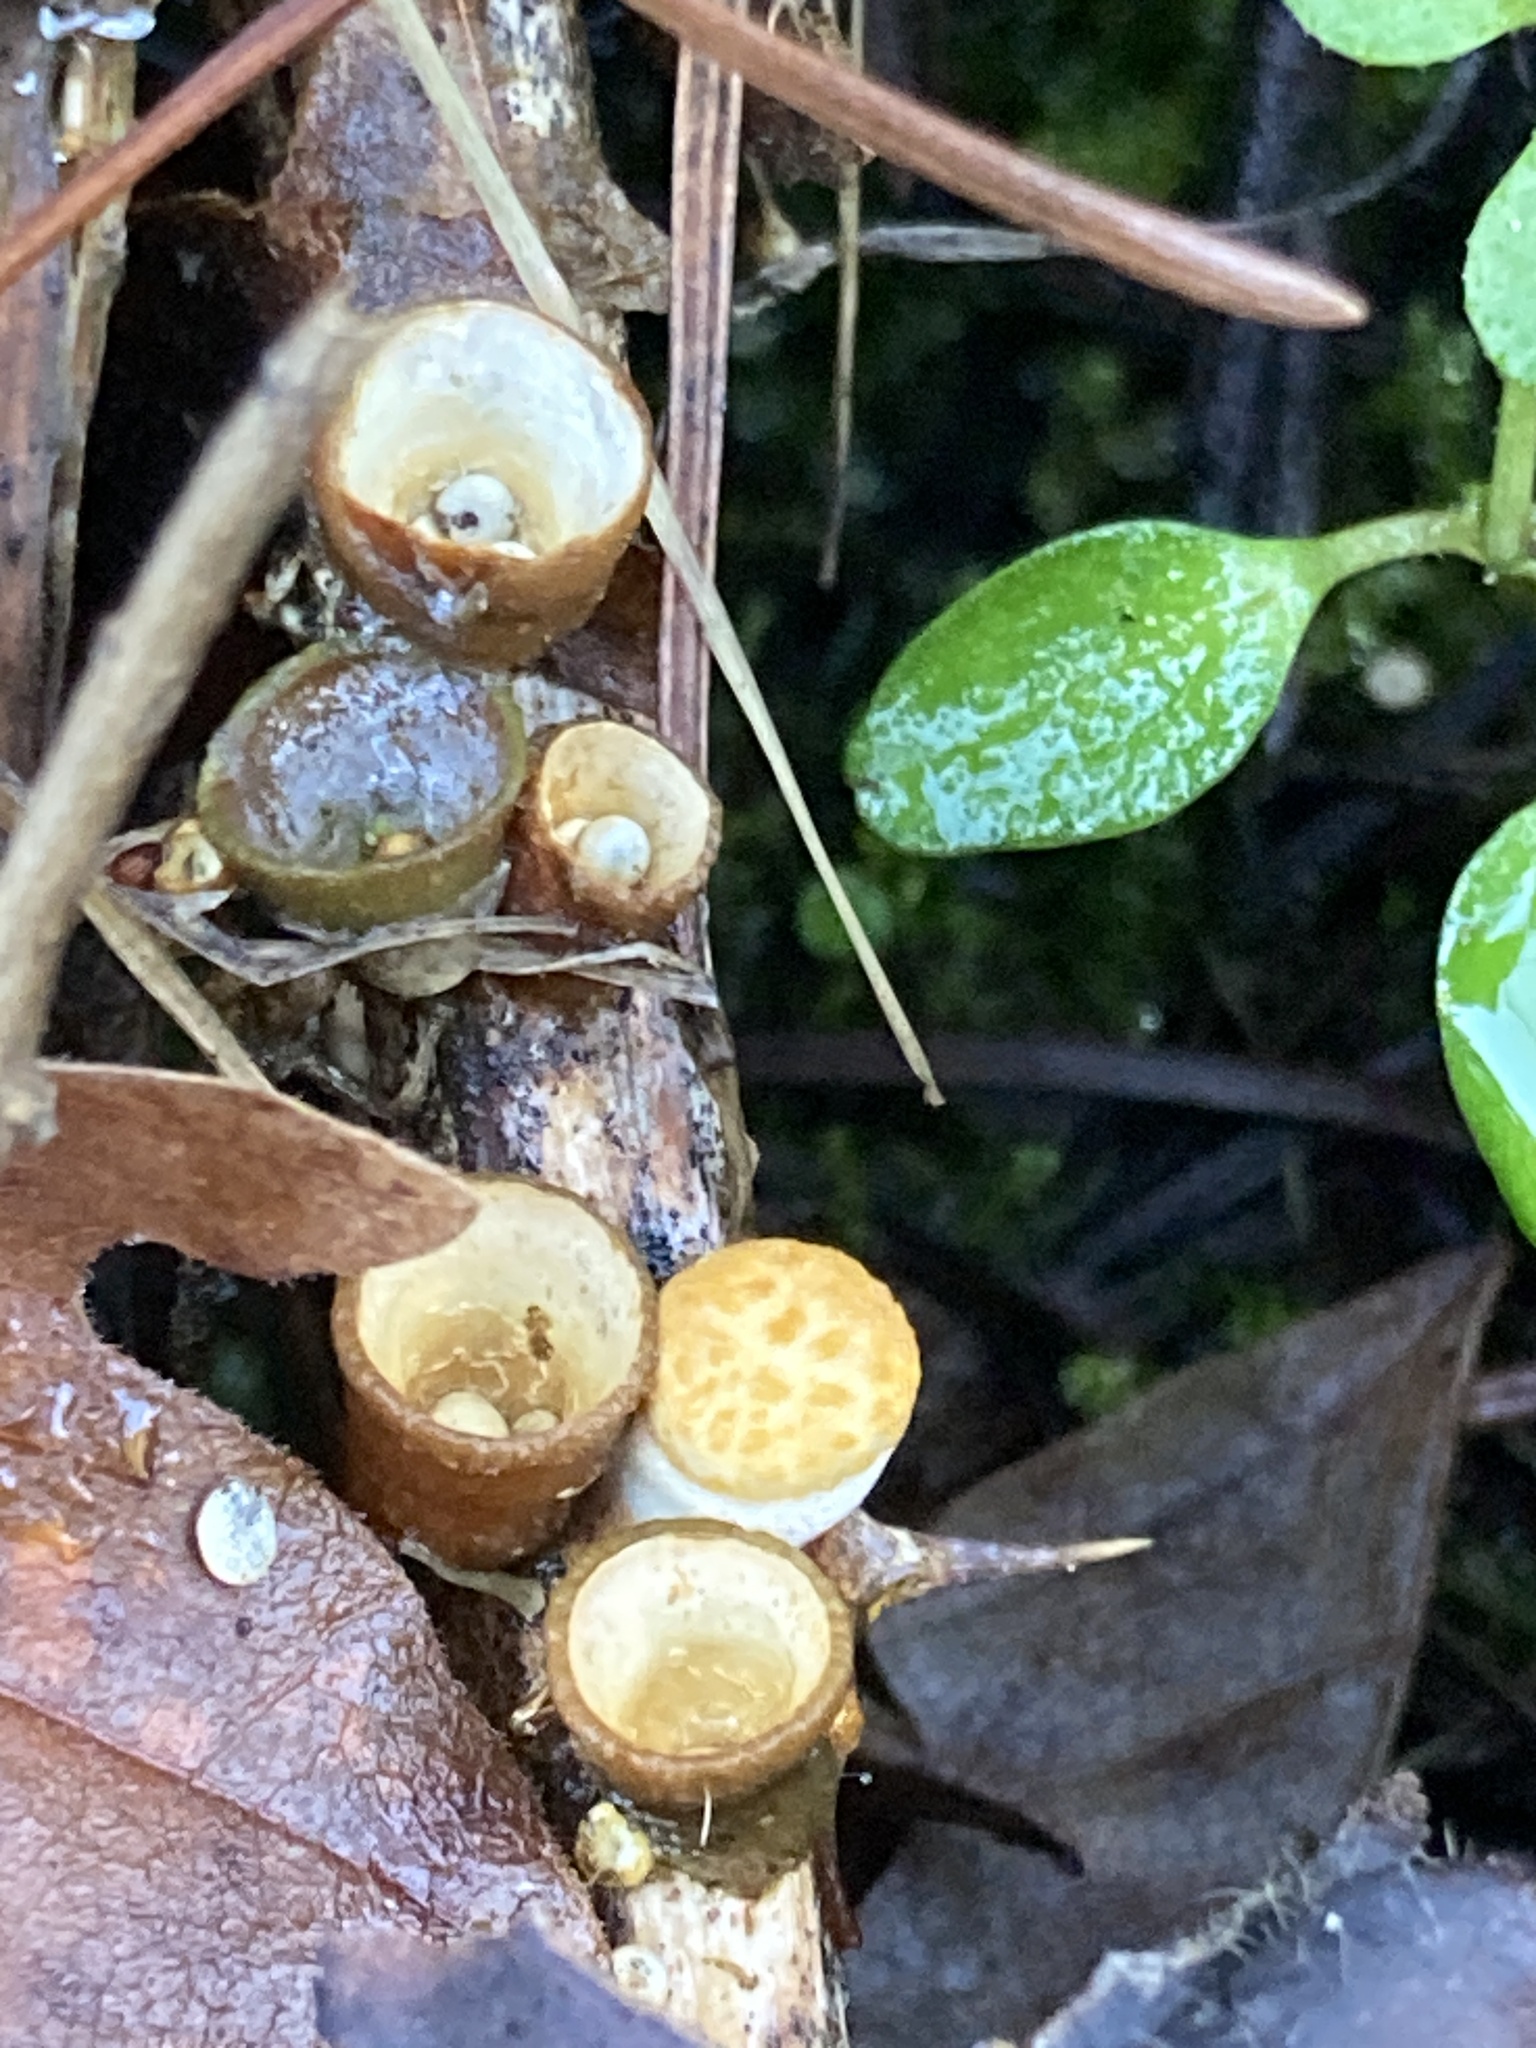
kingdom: Fungi
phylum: Basidiomycota
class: Agaricomycetes
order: Agaricales
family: Nidulariaceae
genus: Crucibulum
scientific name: Crucibulum laeve
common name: Common bird's nest
